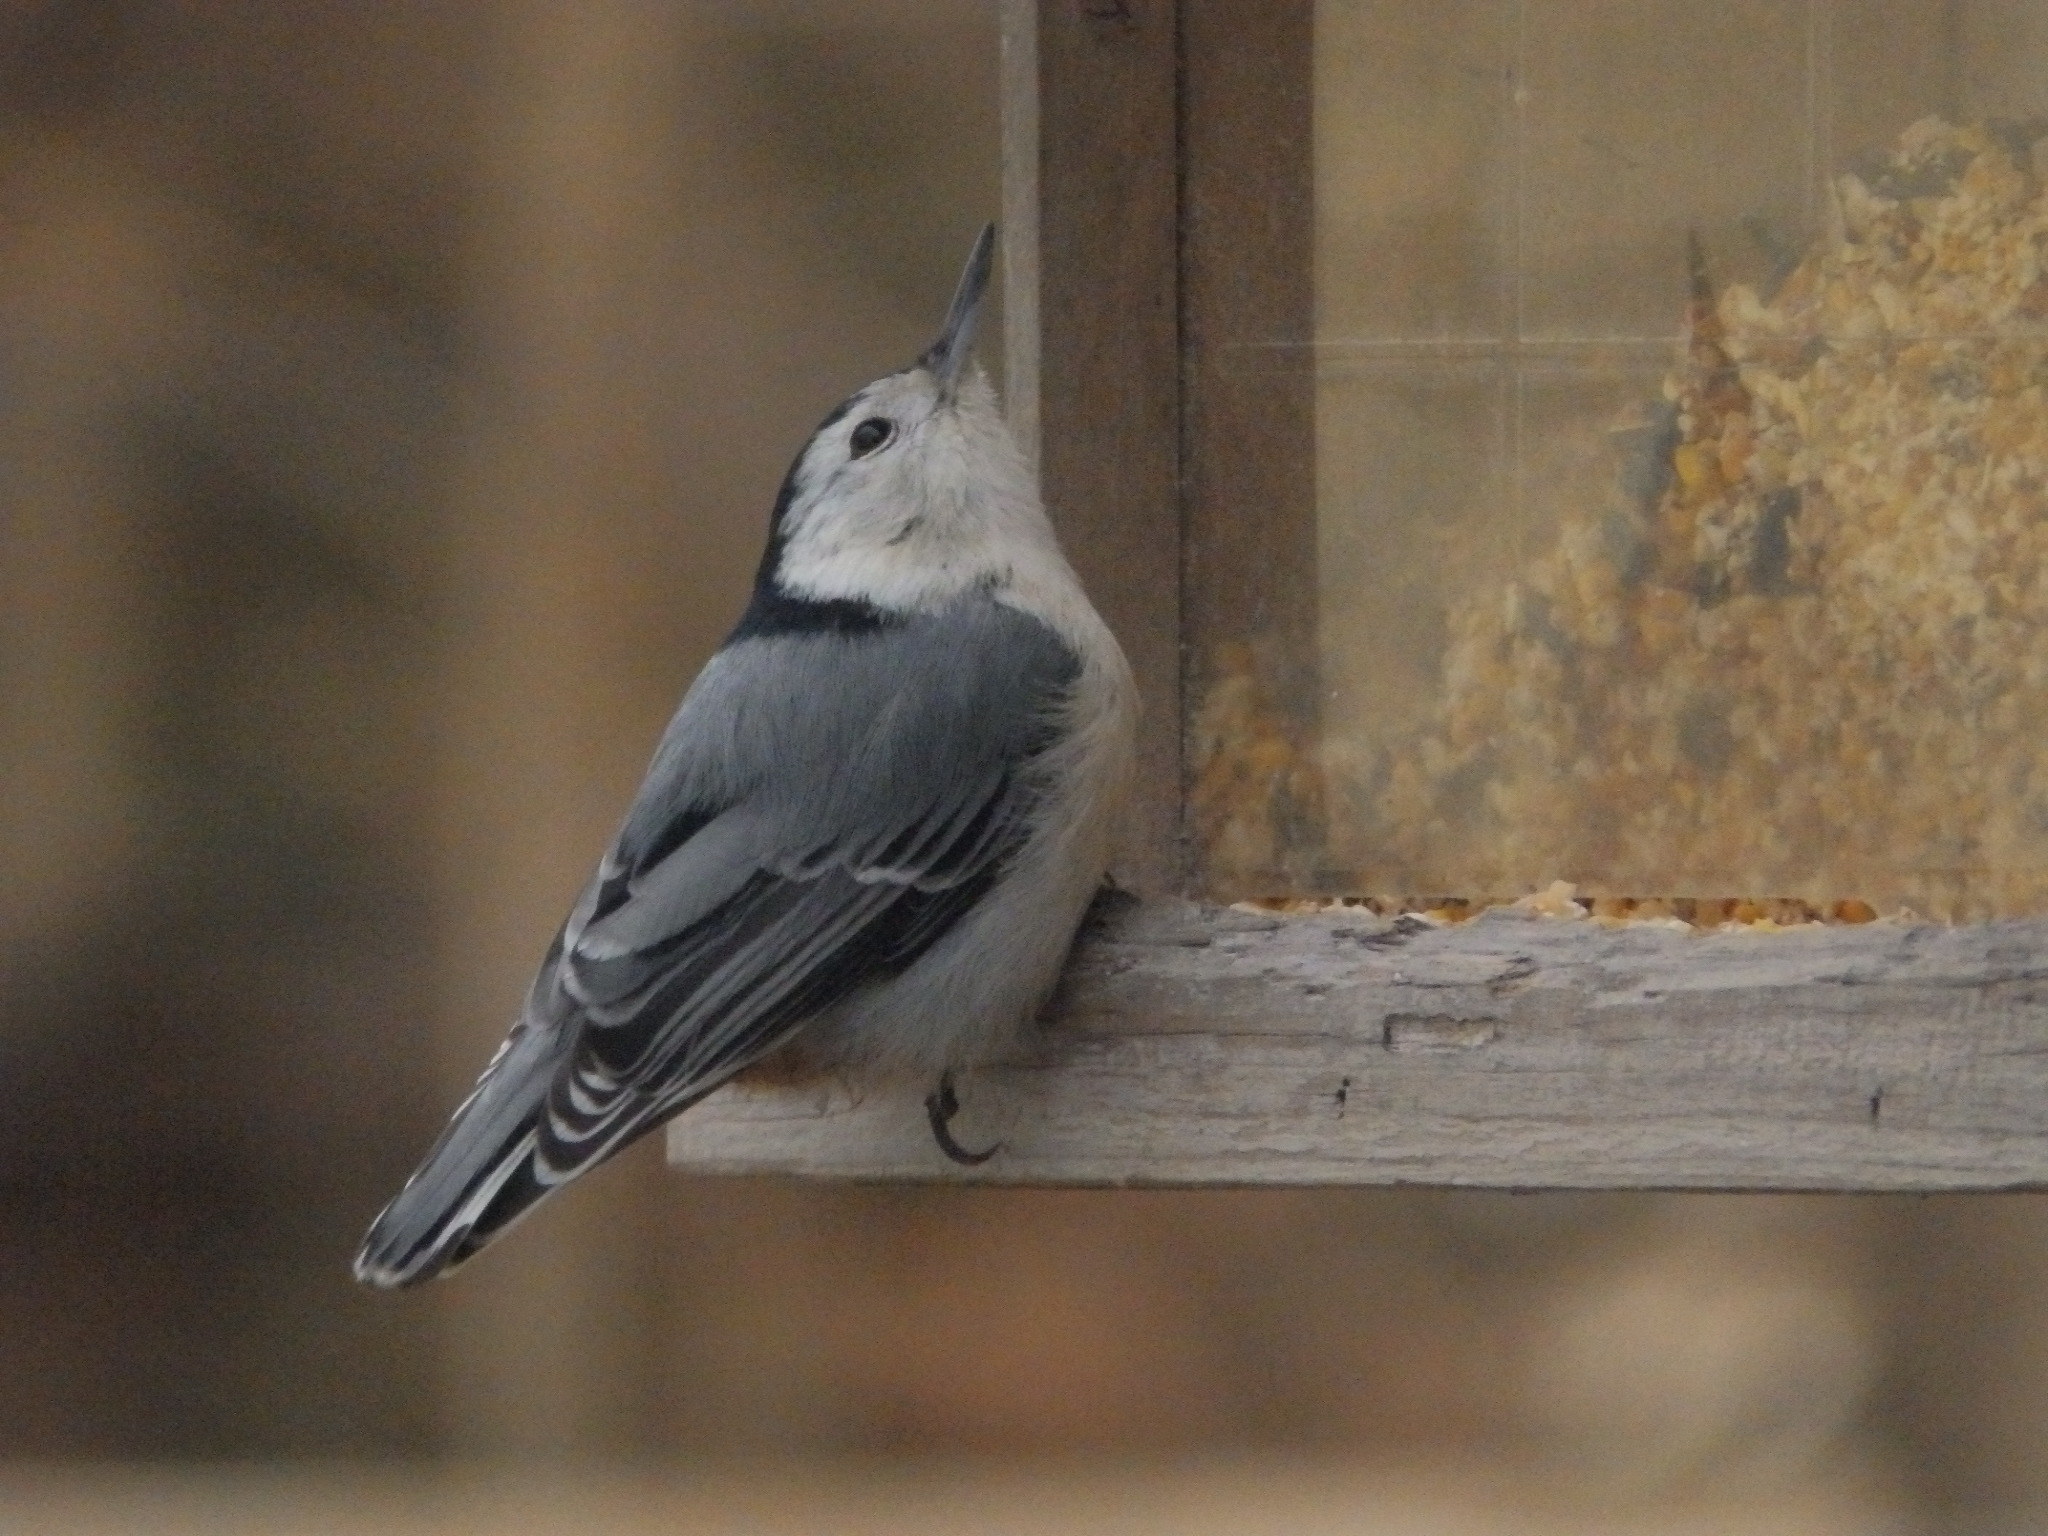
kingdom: Animalia
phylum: Chordata
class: Aves
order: Passeriformes
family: Sittidae
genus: Sitta
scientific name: Sitta carolinensis
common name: White-breasted nuthatch
